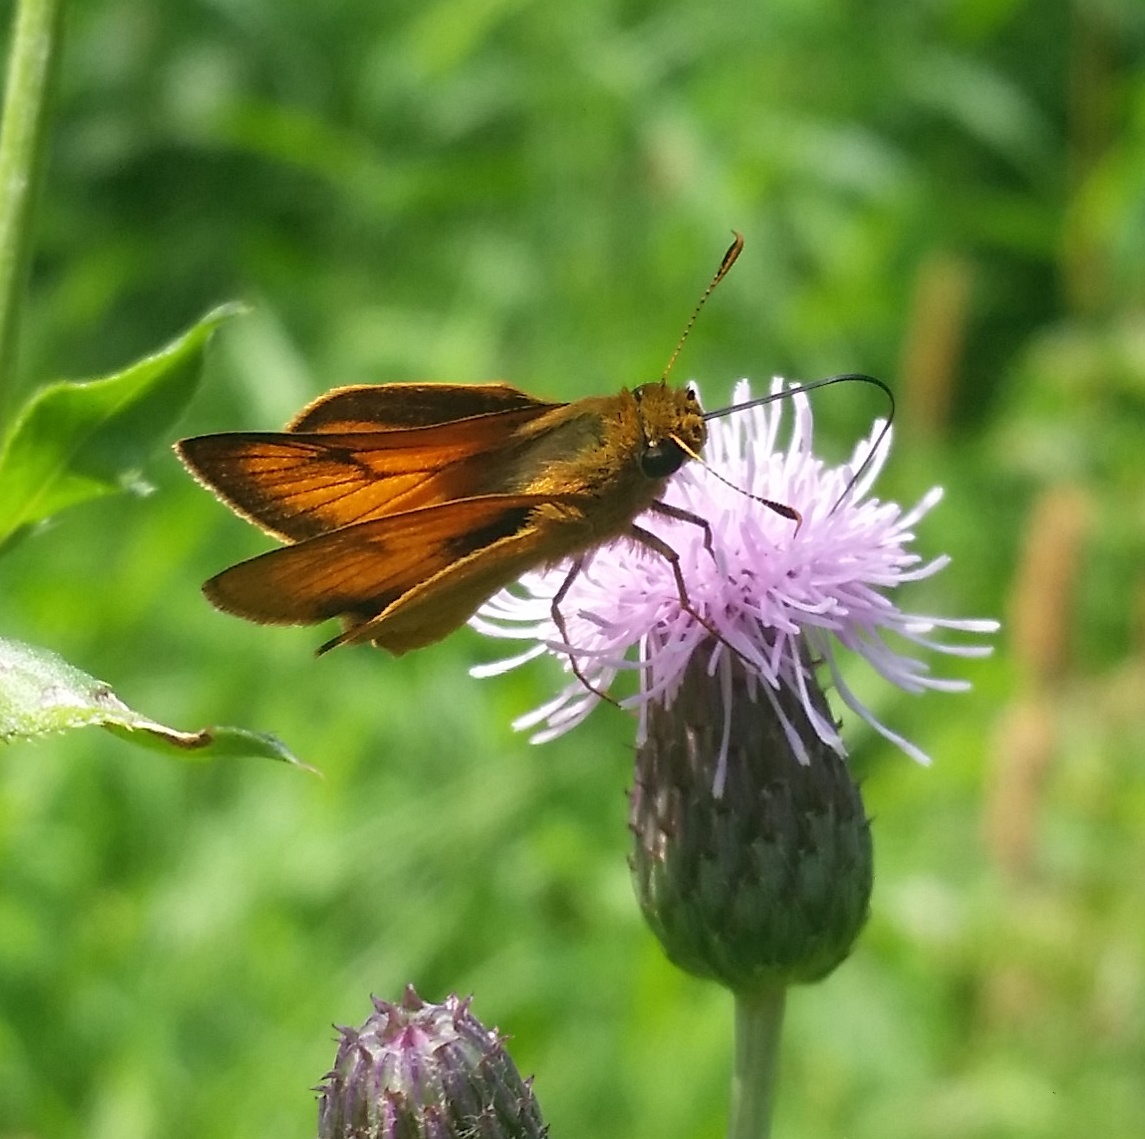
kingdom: Animalia
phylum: Arthropoda
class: Insecta
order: Lepidoptera
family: Hesperiidae
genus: Atrytone
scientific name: Atrytone delaware
